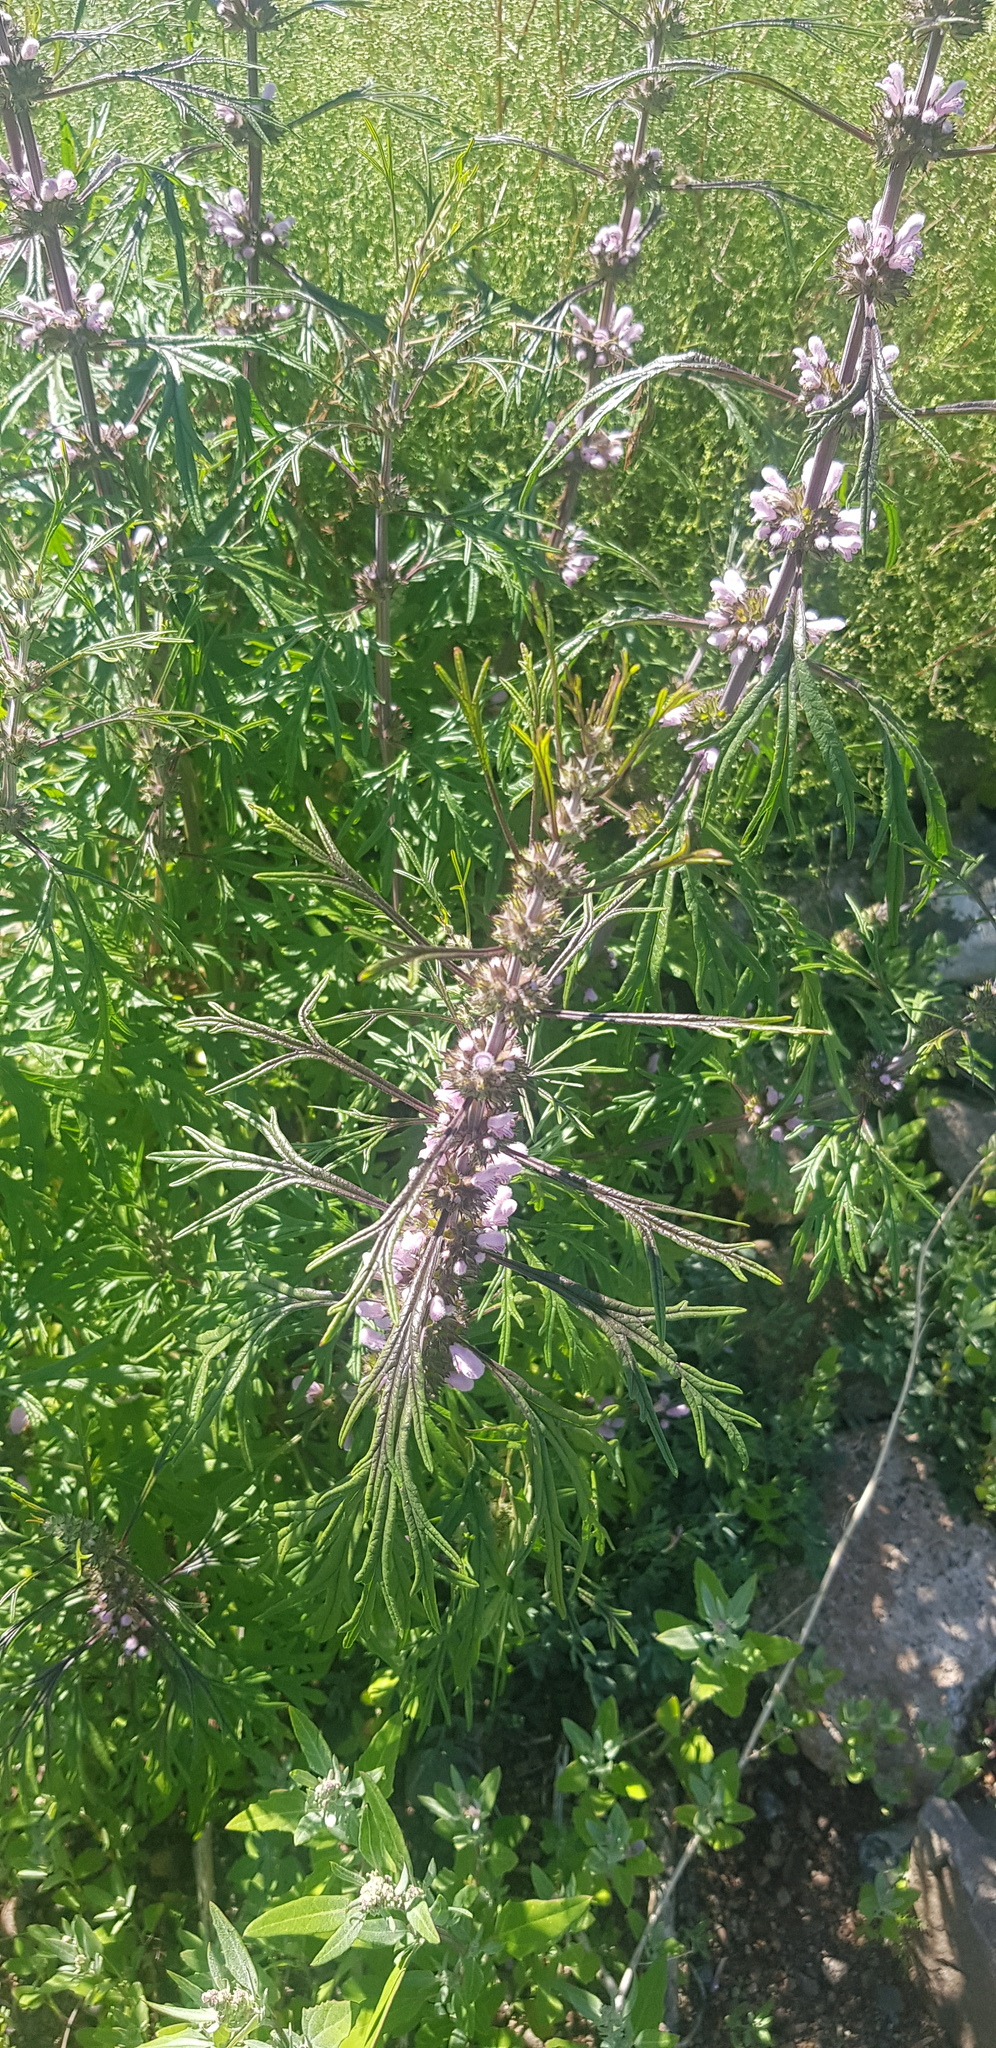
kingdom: Plantae
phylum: Tracheophyta
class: Magnoliopsida
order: Lamiales
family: Lamiaceae
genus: Leonurus
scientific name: Leonurus sibiricus
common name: Honeyweed
